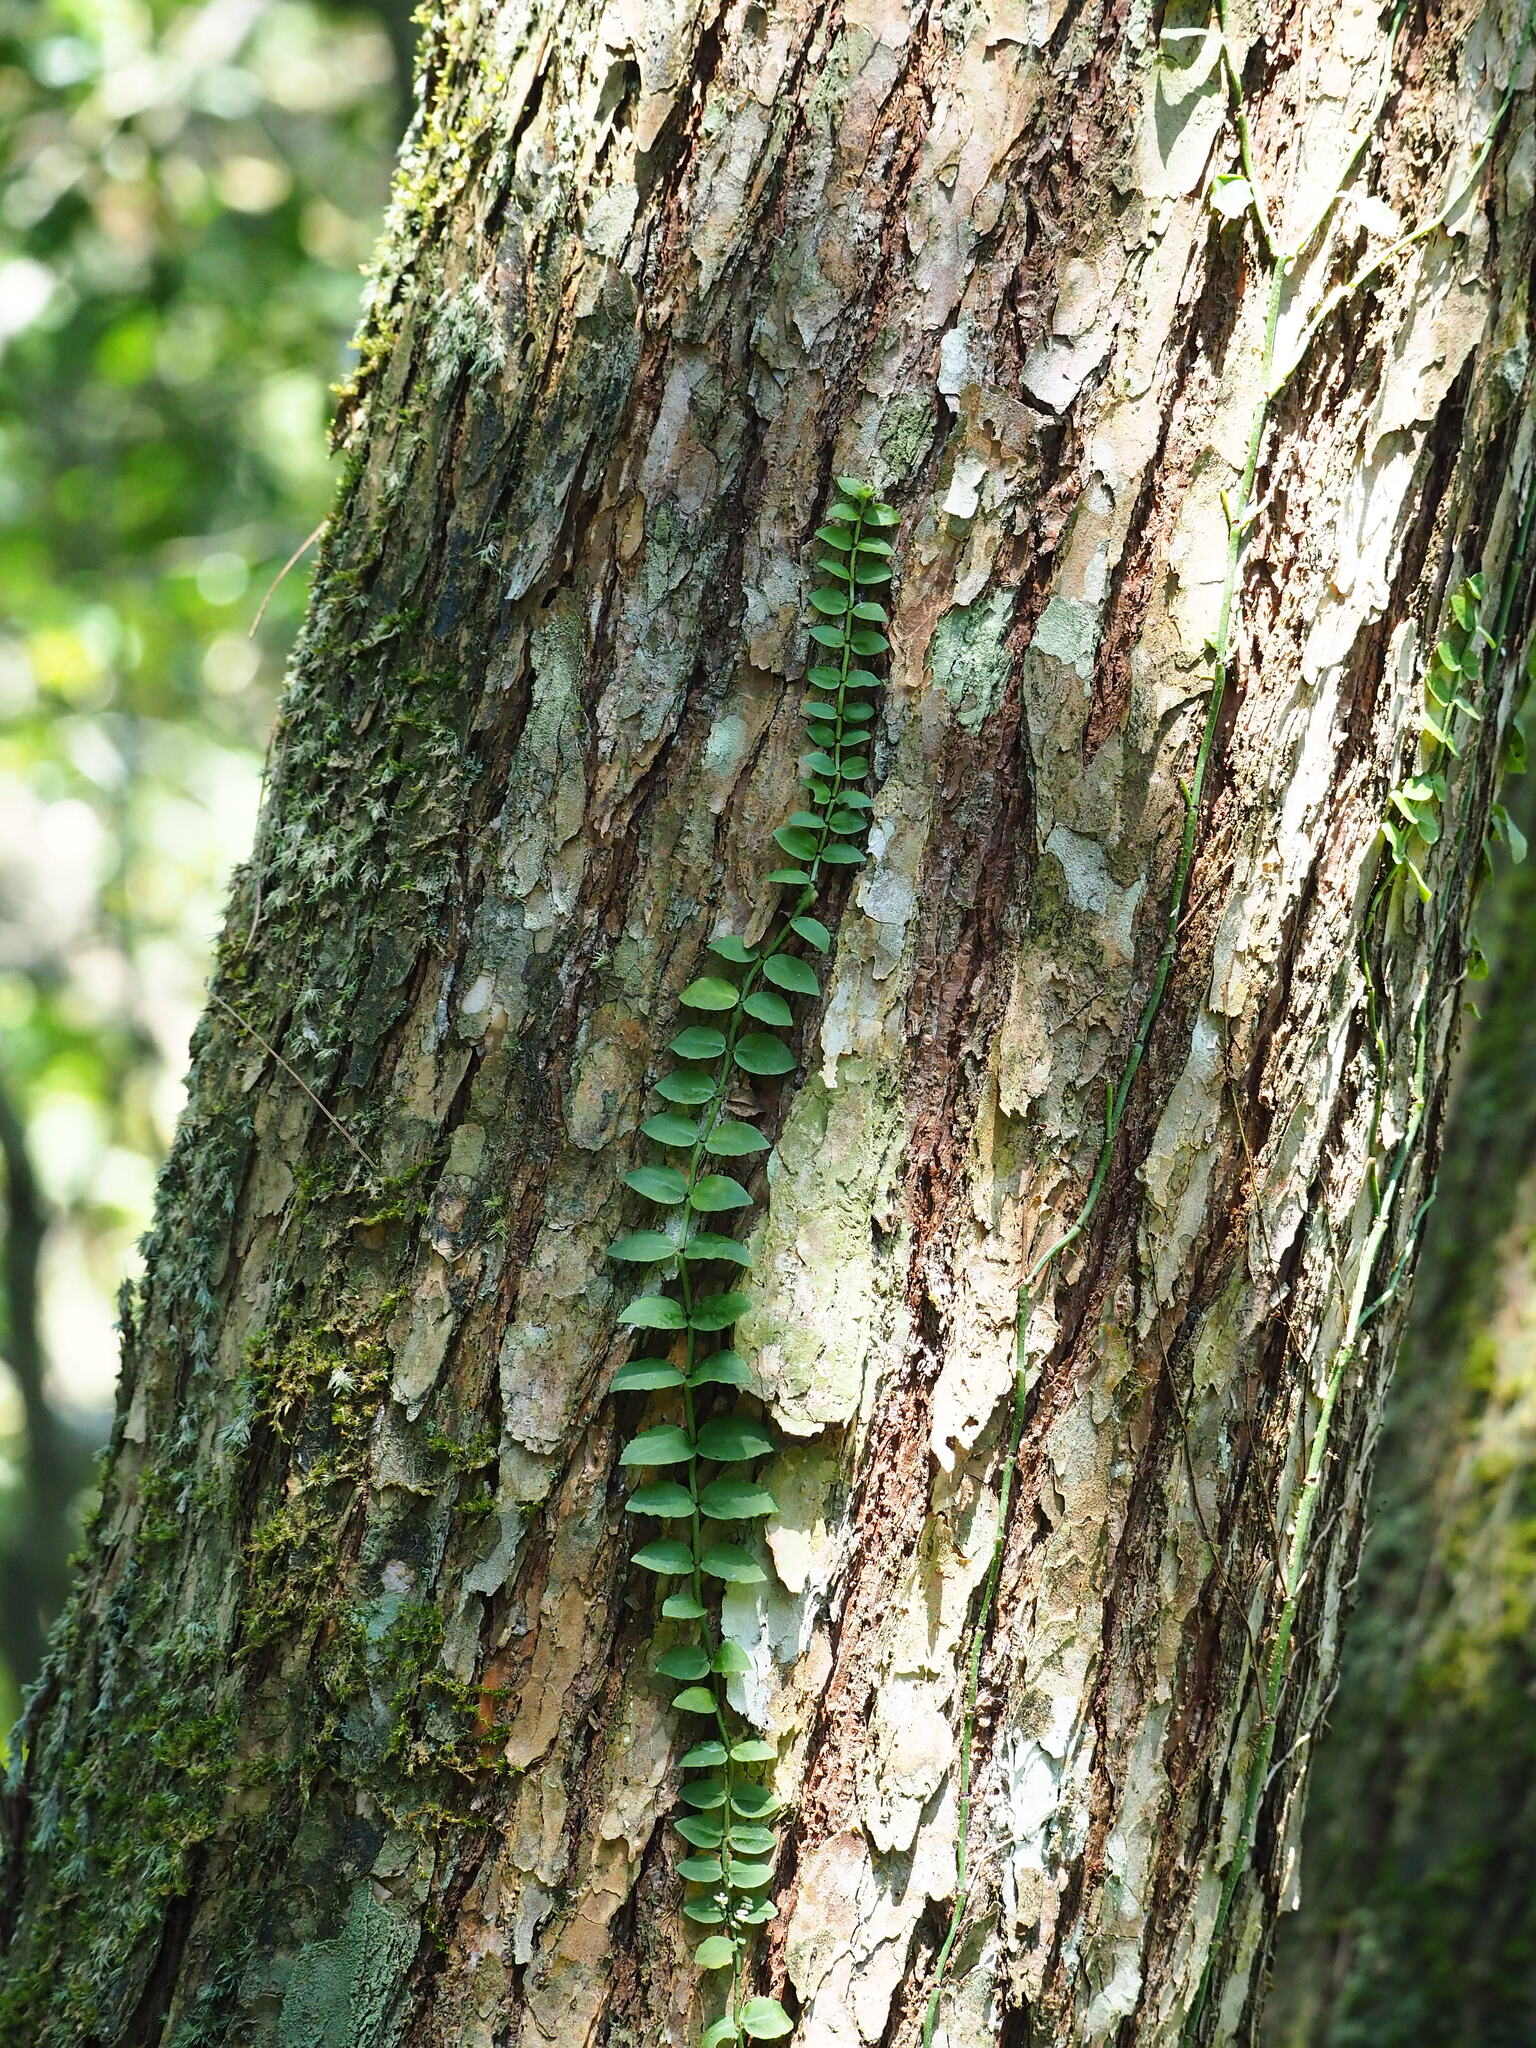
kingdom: Plantae
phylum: Tracheophyta
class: Magnoliopsida
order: Gentianales
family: Rubiaceae
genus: Psychotria
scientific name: Psychotria serpens
